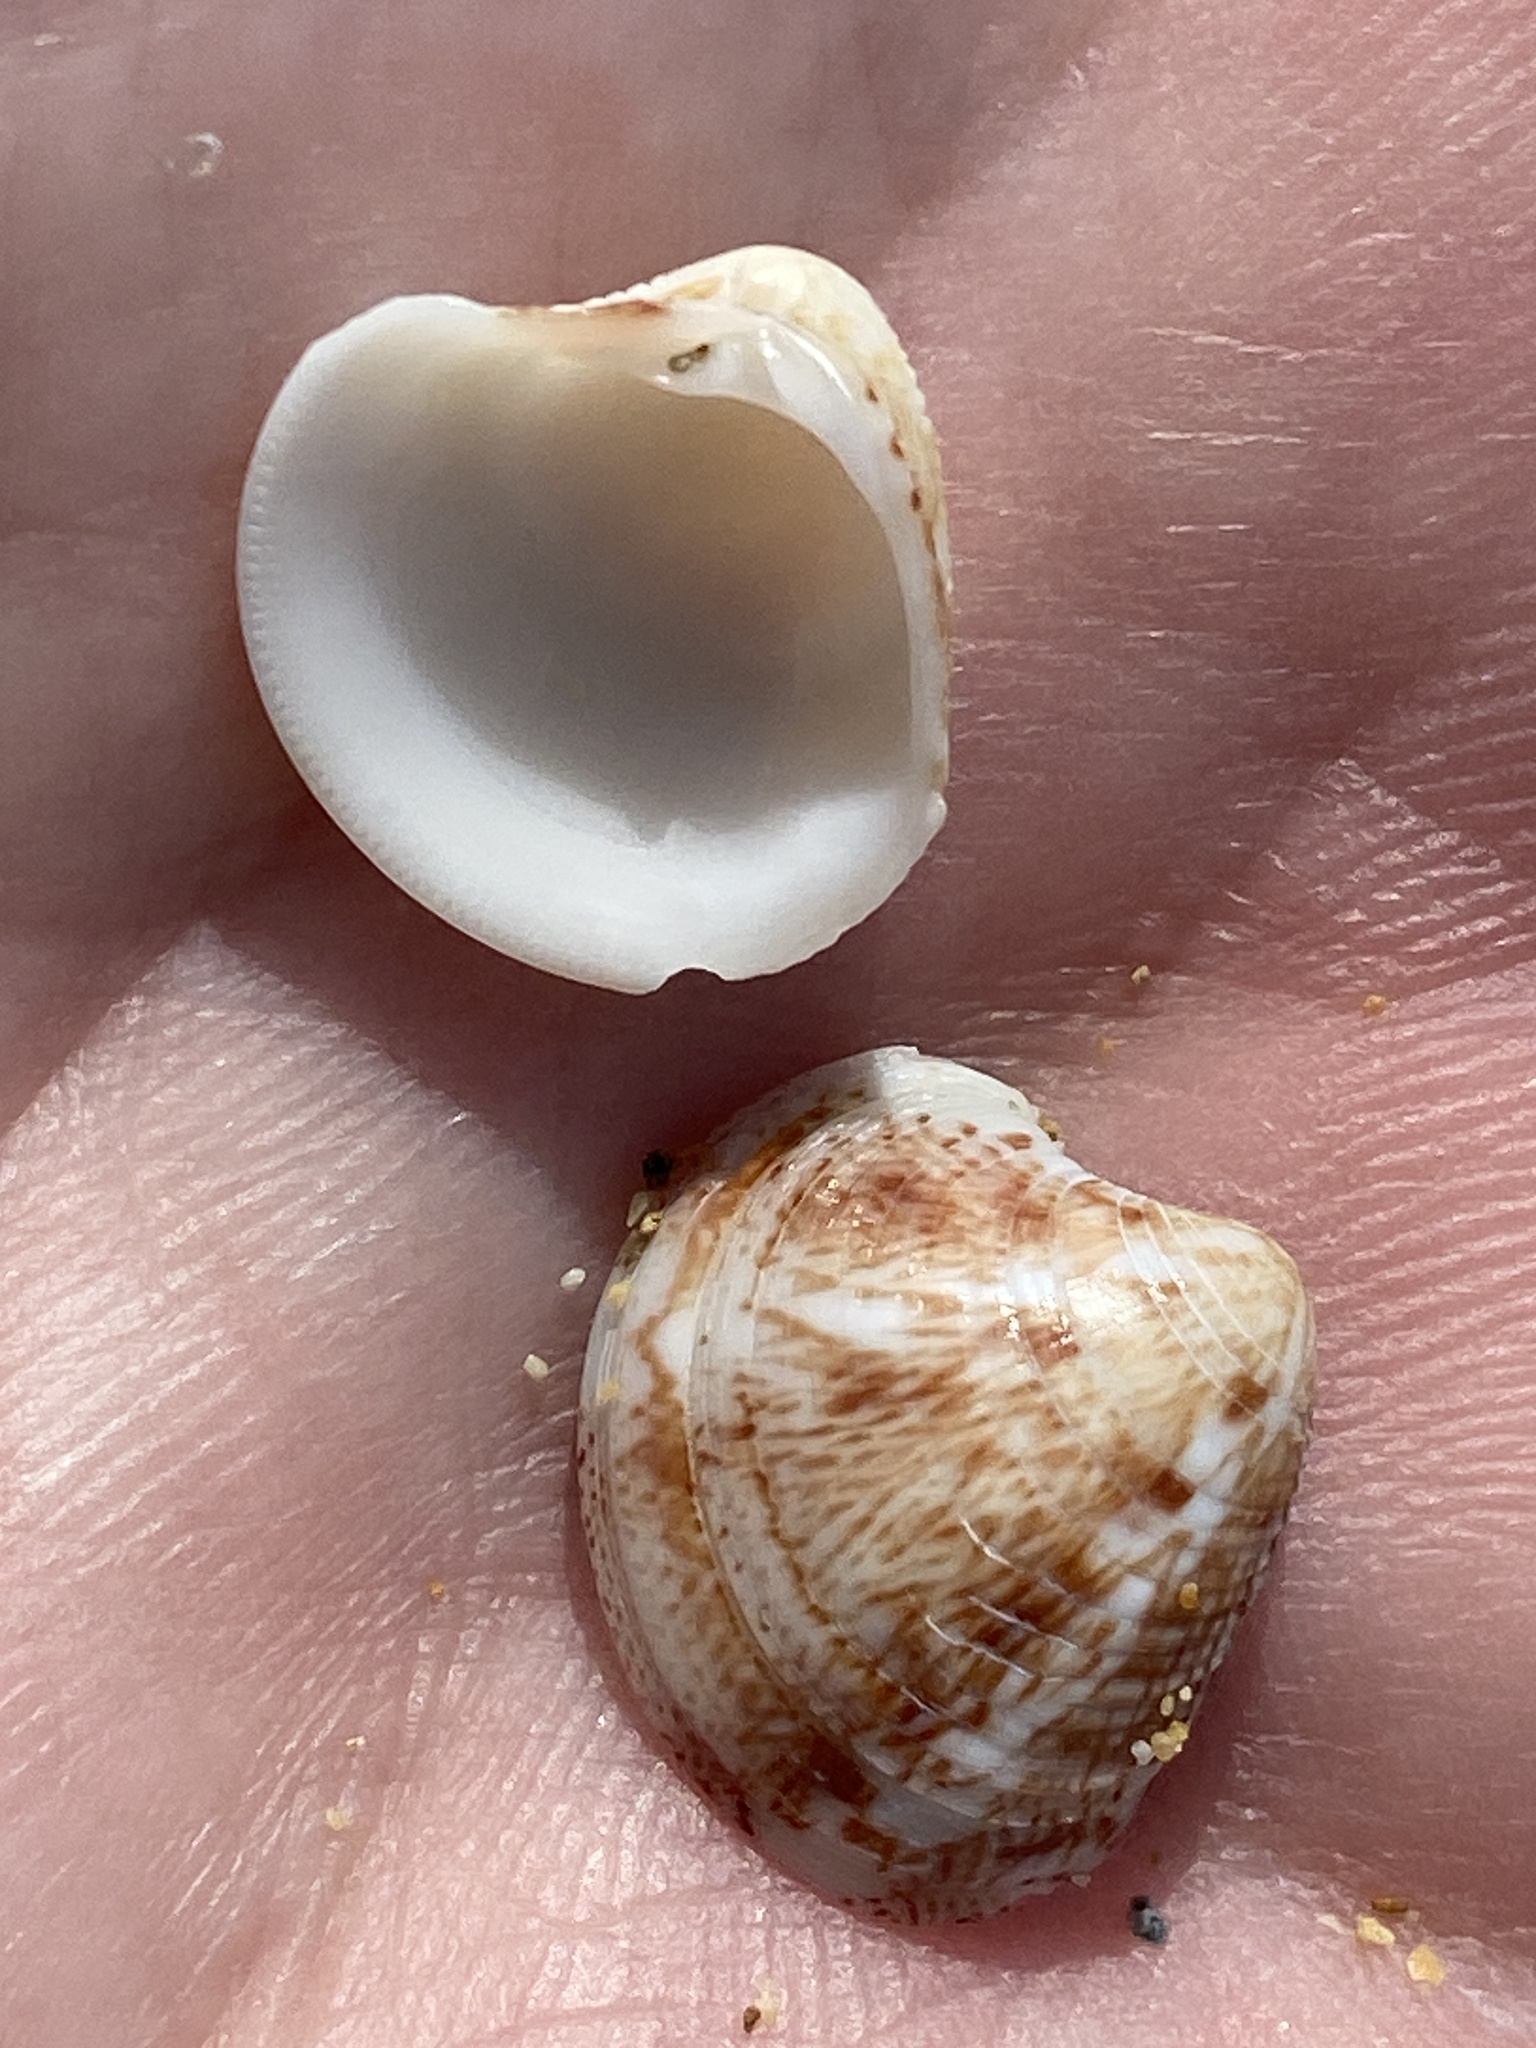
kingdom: Animalia
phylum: Mollusca
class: Bivalvia
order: Venerida
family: Veneridae
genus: Chamelea
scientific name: Chamelea gallina
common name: Chicken venus
